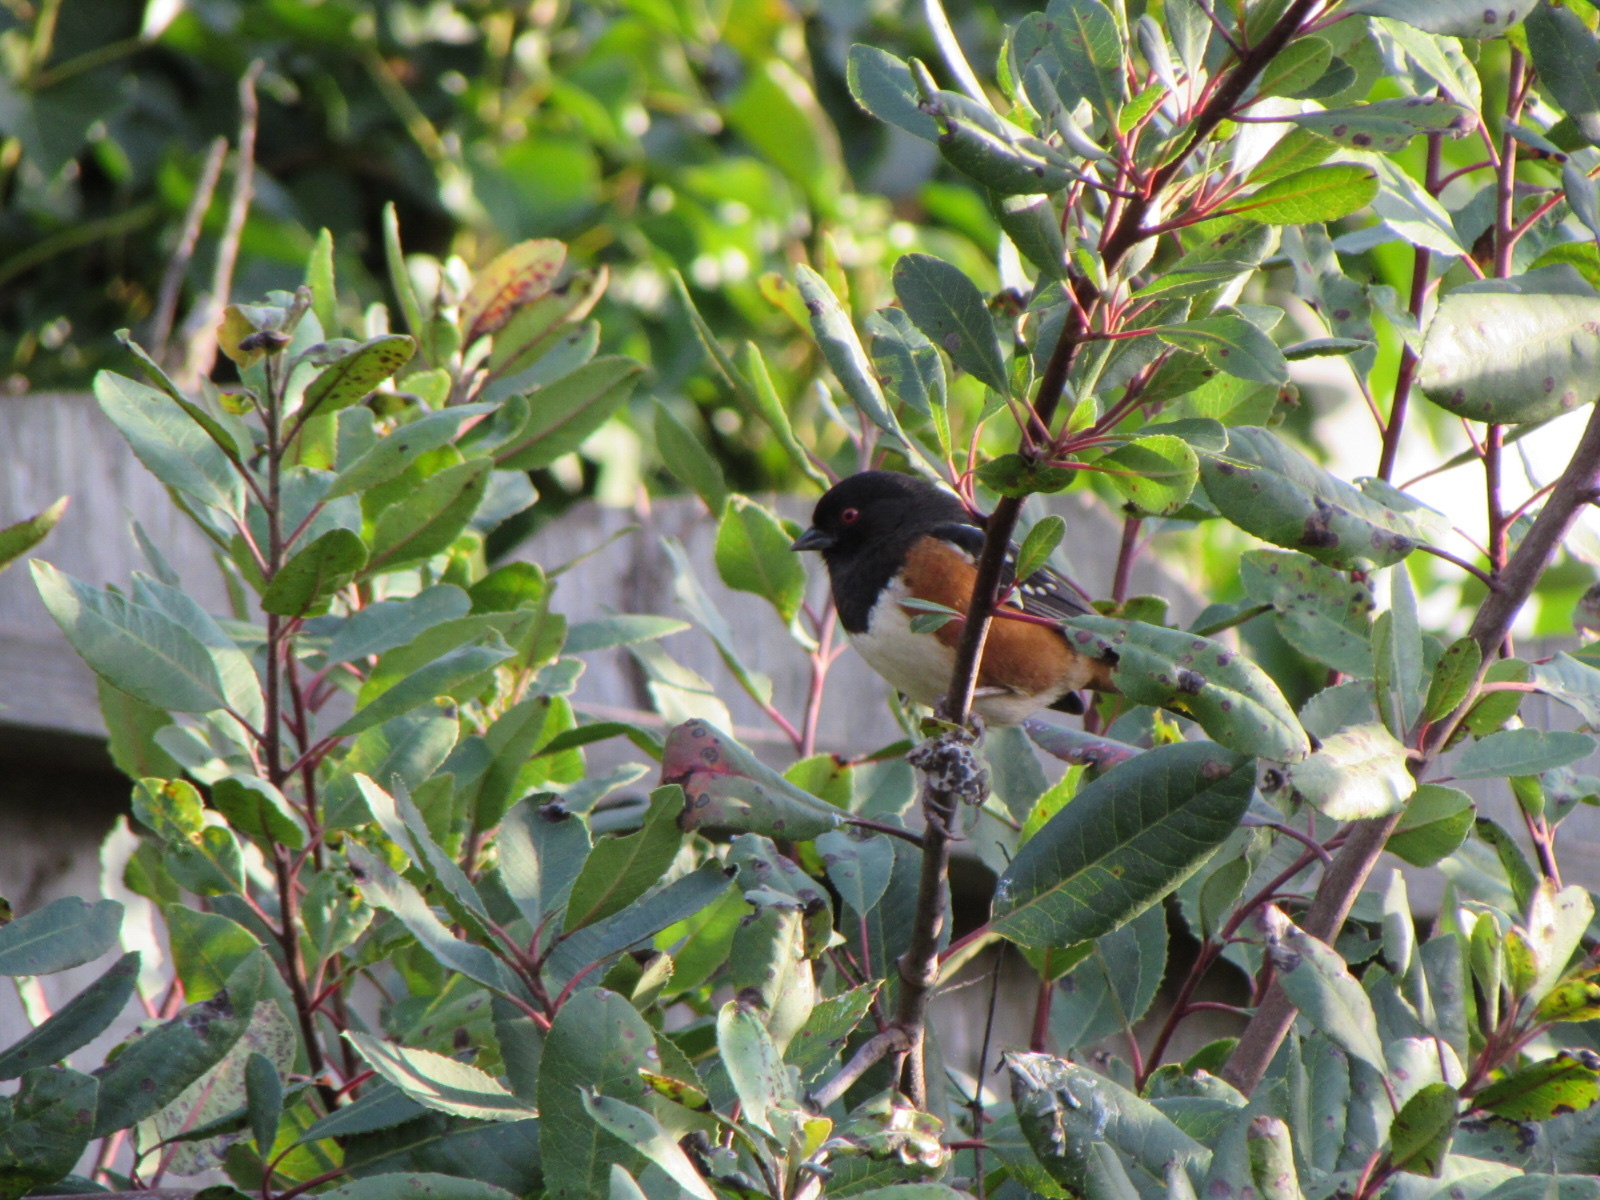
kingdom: Animalia
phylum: Chordata
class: Aves
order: Passeriformes
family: Passerellidae
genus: Pipilo
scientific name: Pipilo maculatus
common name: Spotted towhee
